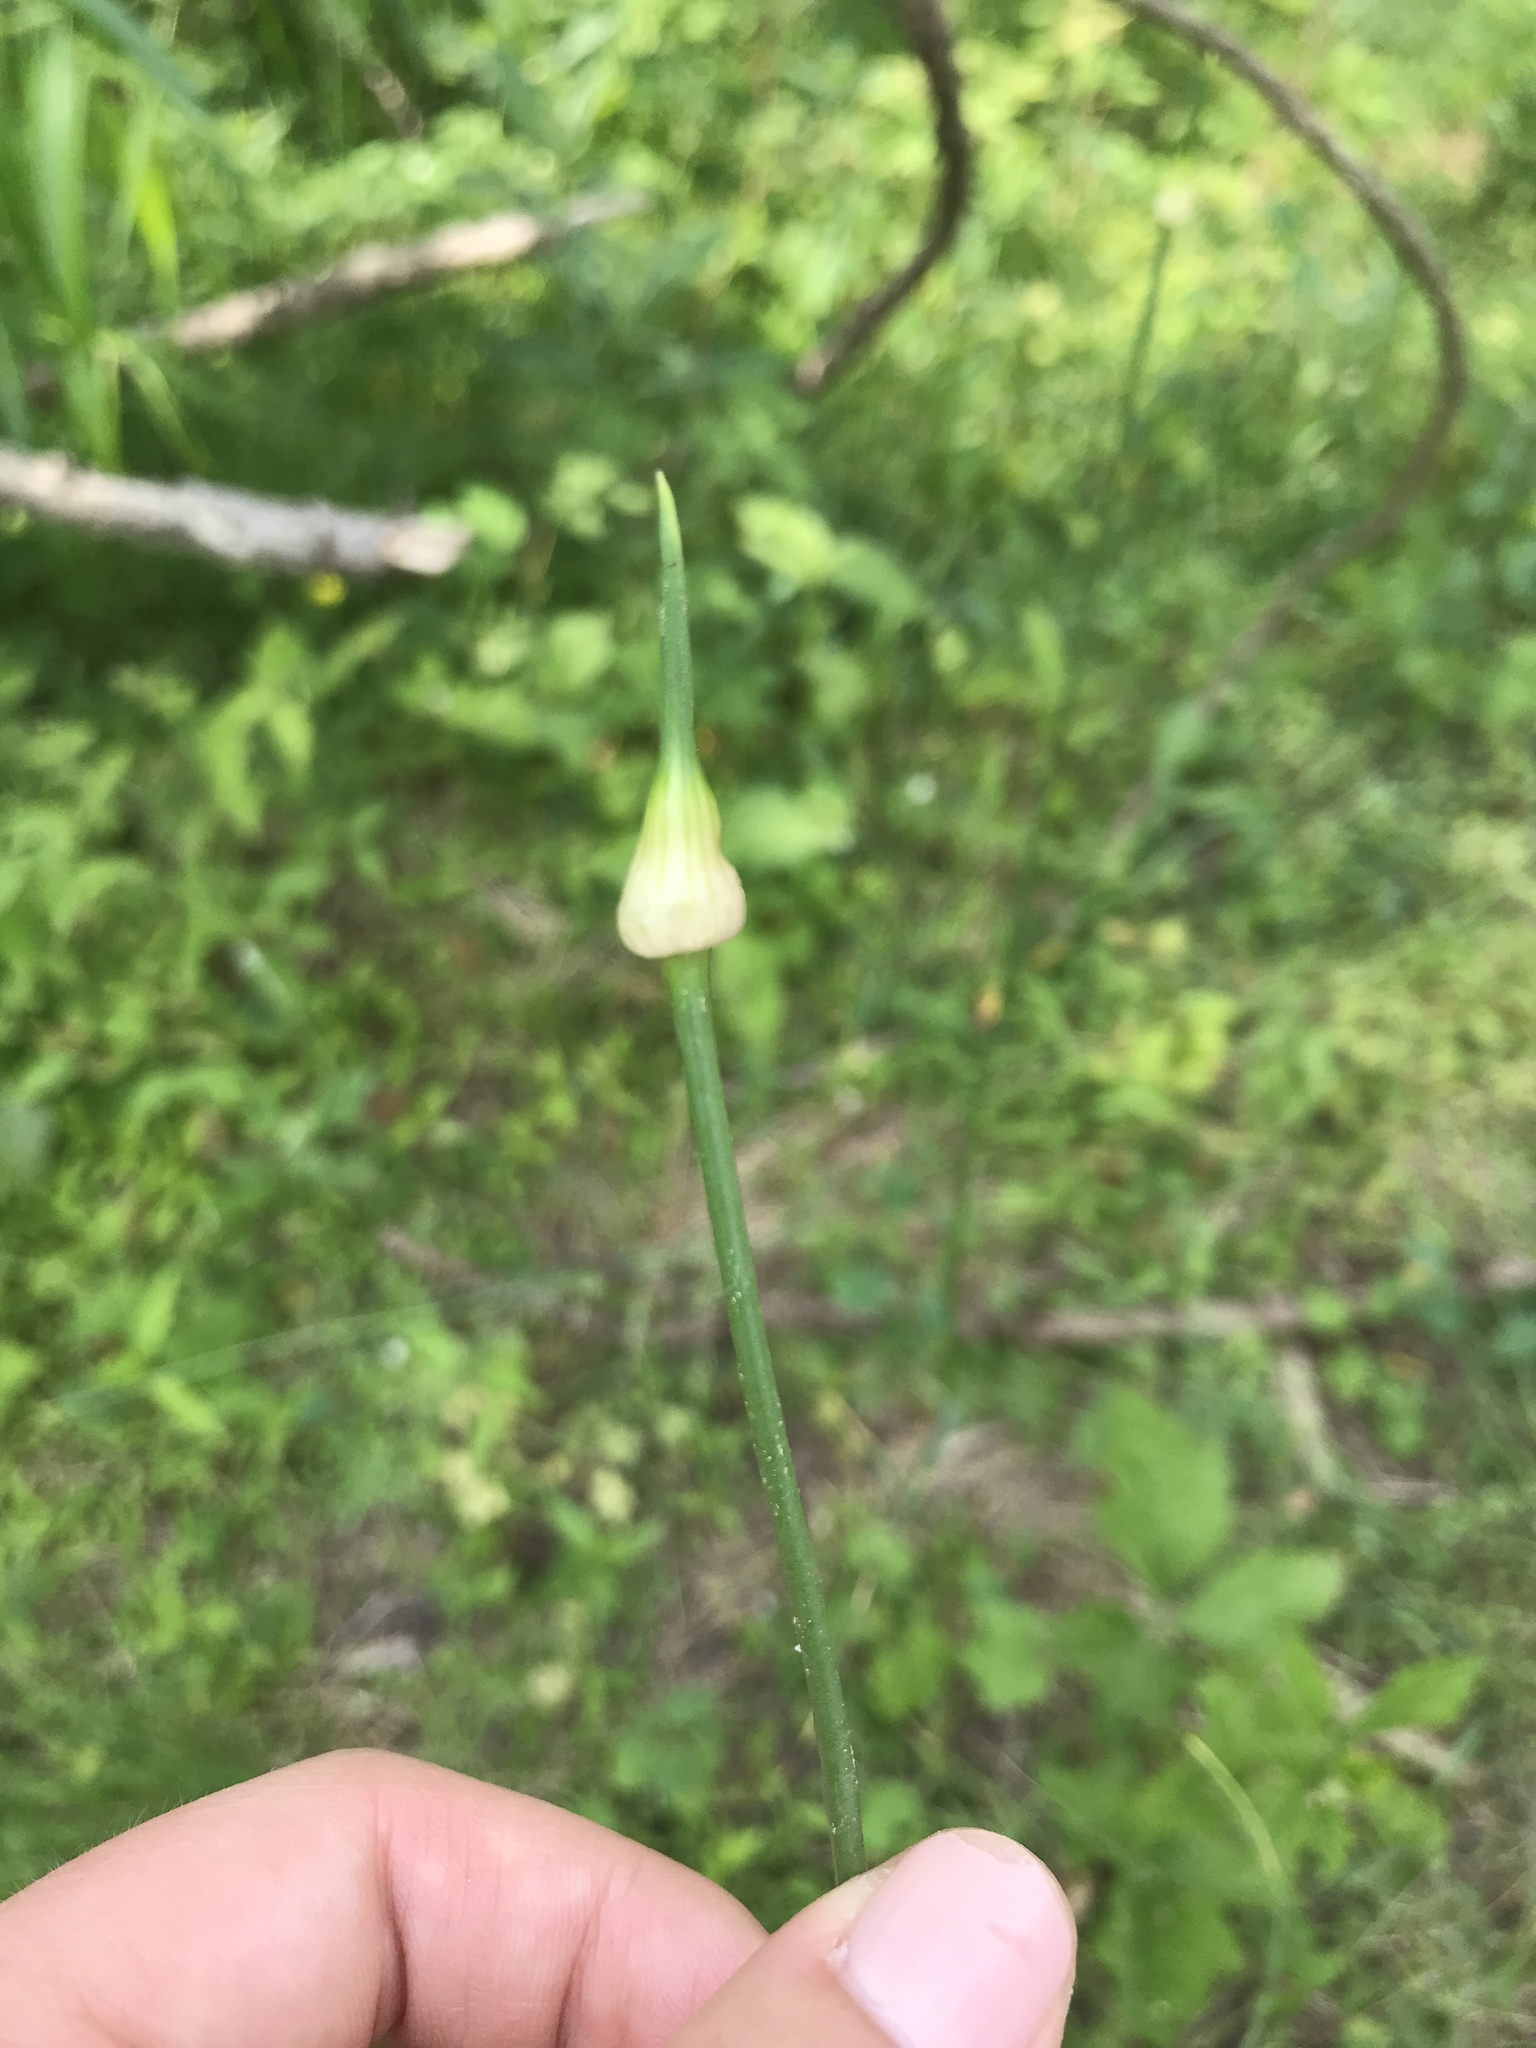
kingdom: Plantae
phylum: Tracheophyta
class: Liliopsida
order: Asparagales
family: Amaryllidaceae
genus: Allium
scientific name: Allium sativum
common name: Garlic
